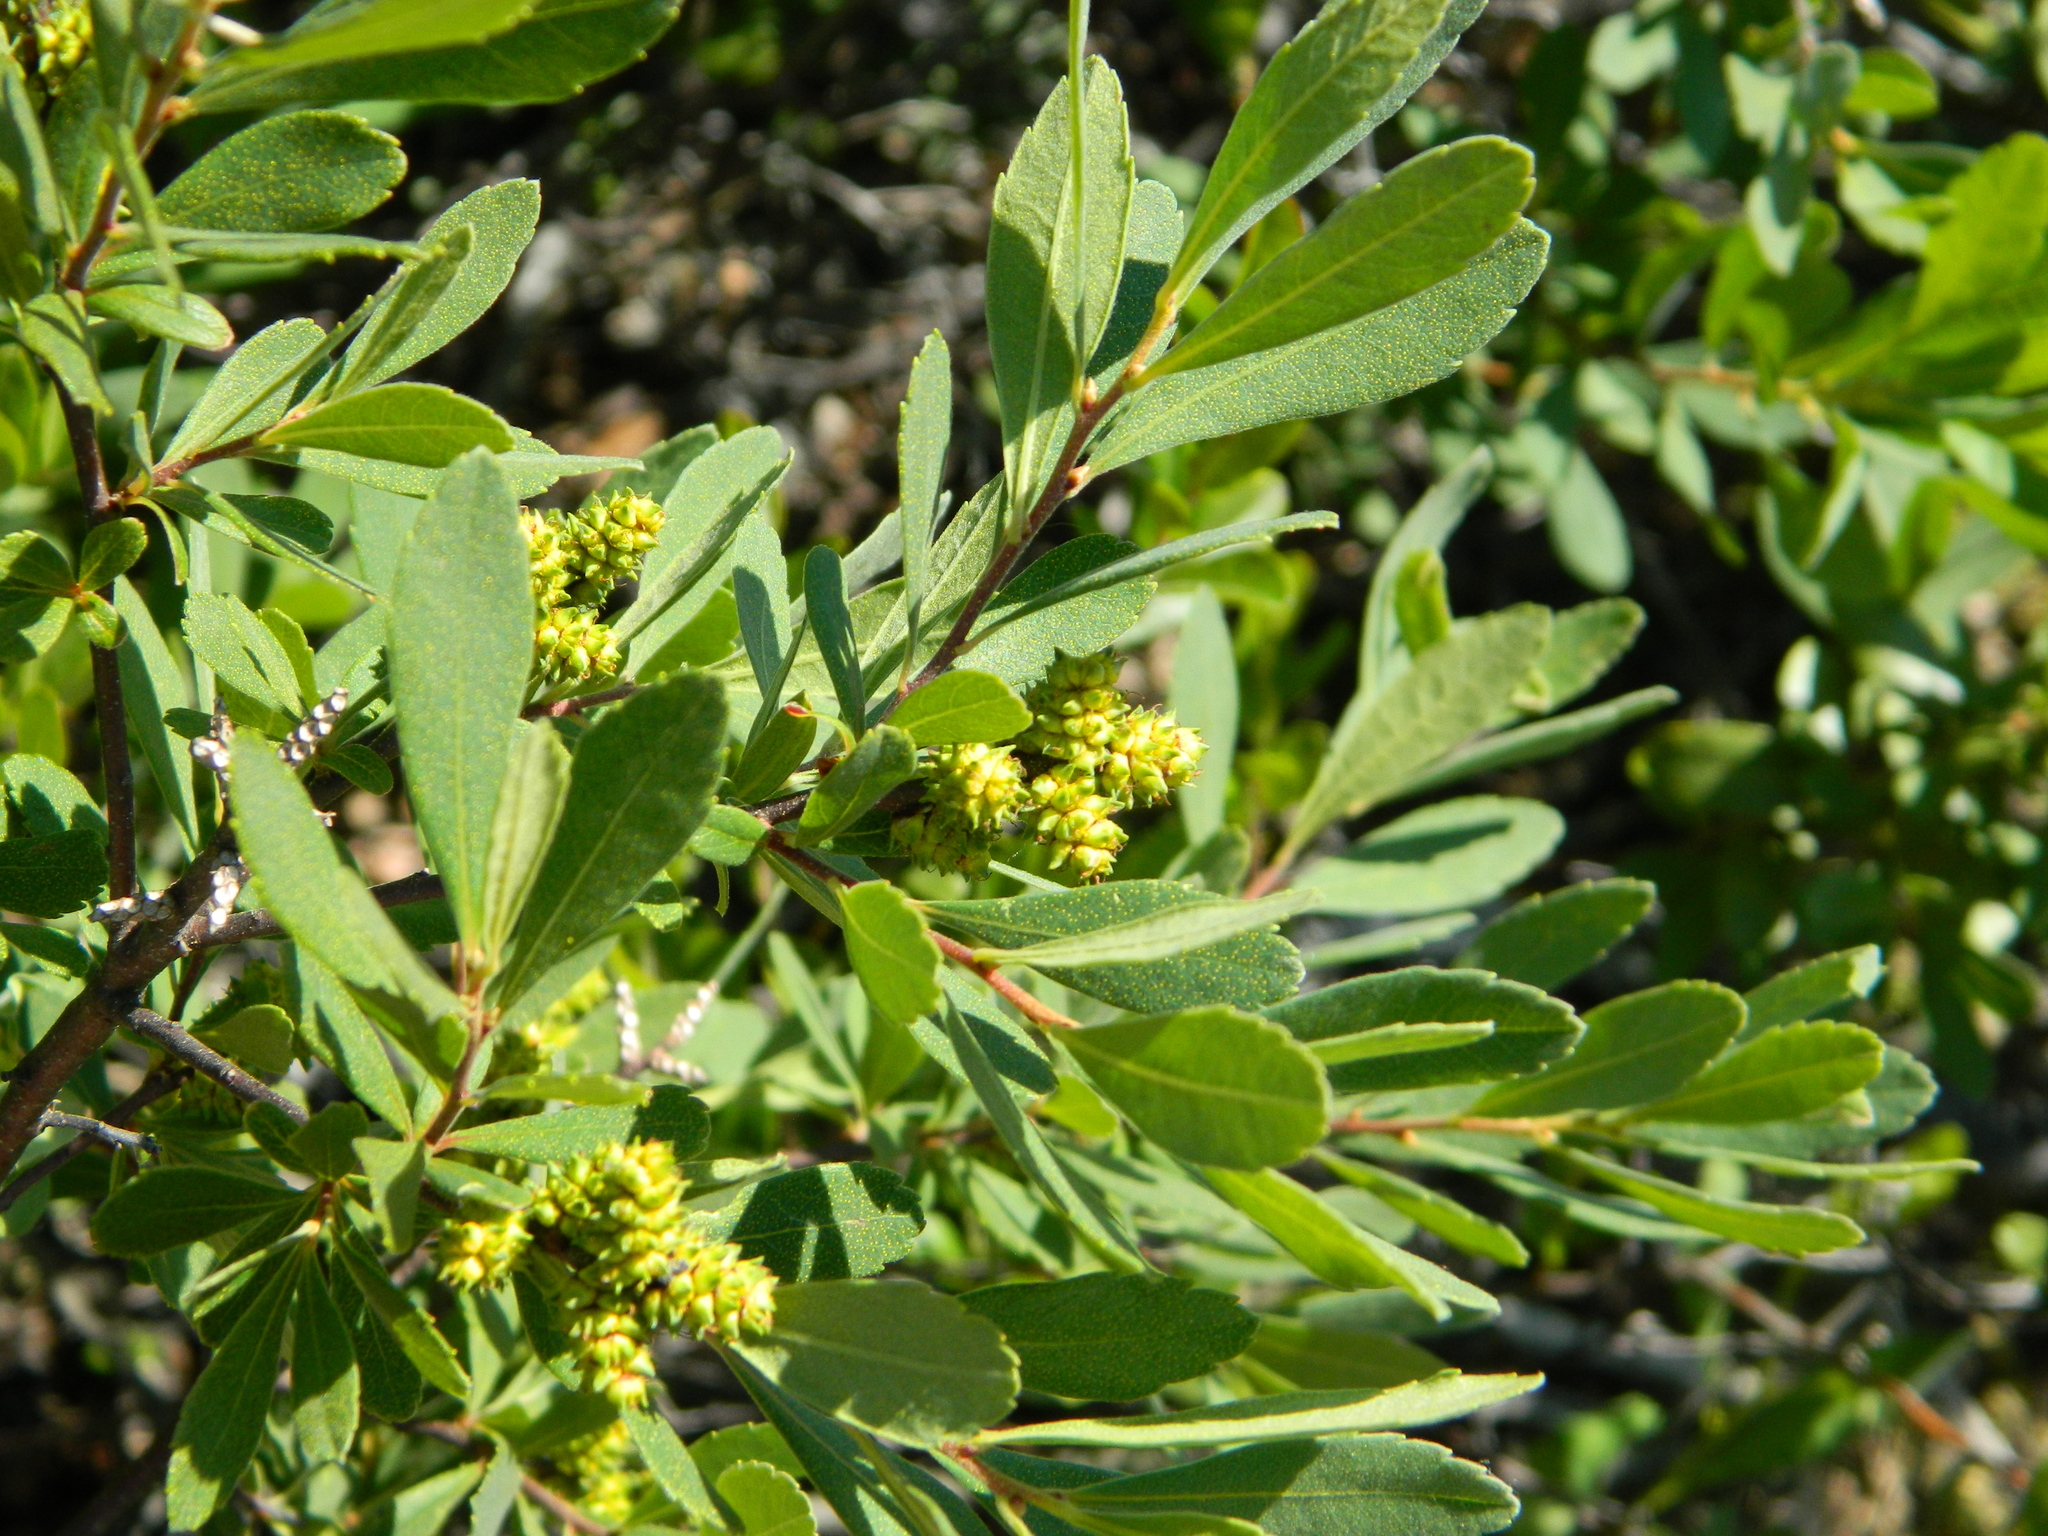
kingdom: Plantae
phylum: Tracheophyta
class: Magnoliopsida
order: Fagales
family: Myricaceae
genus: Myrica
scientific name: Myrica gale
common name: Sweet gale
